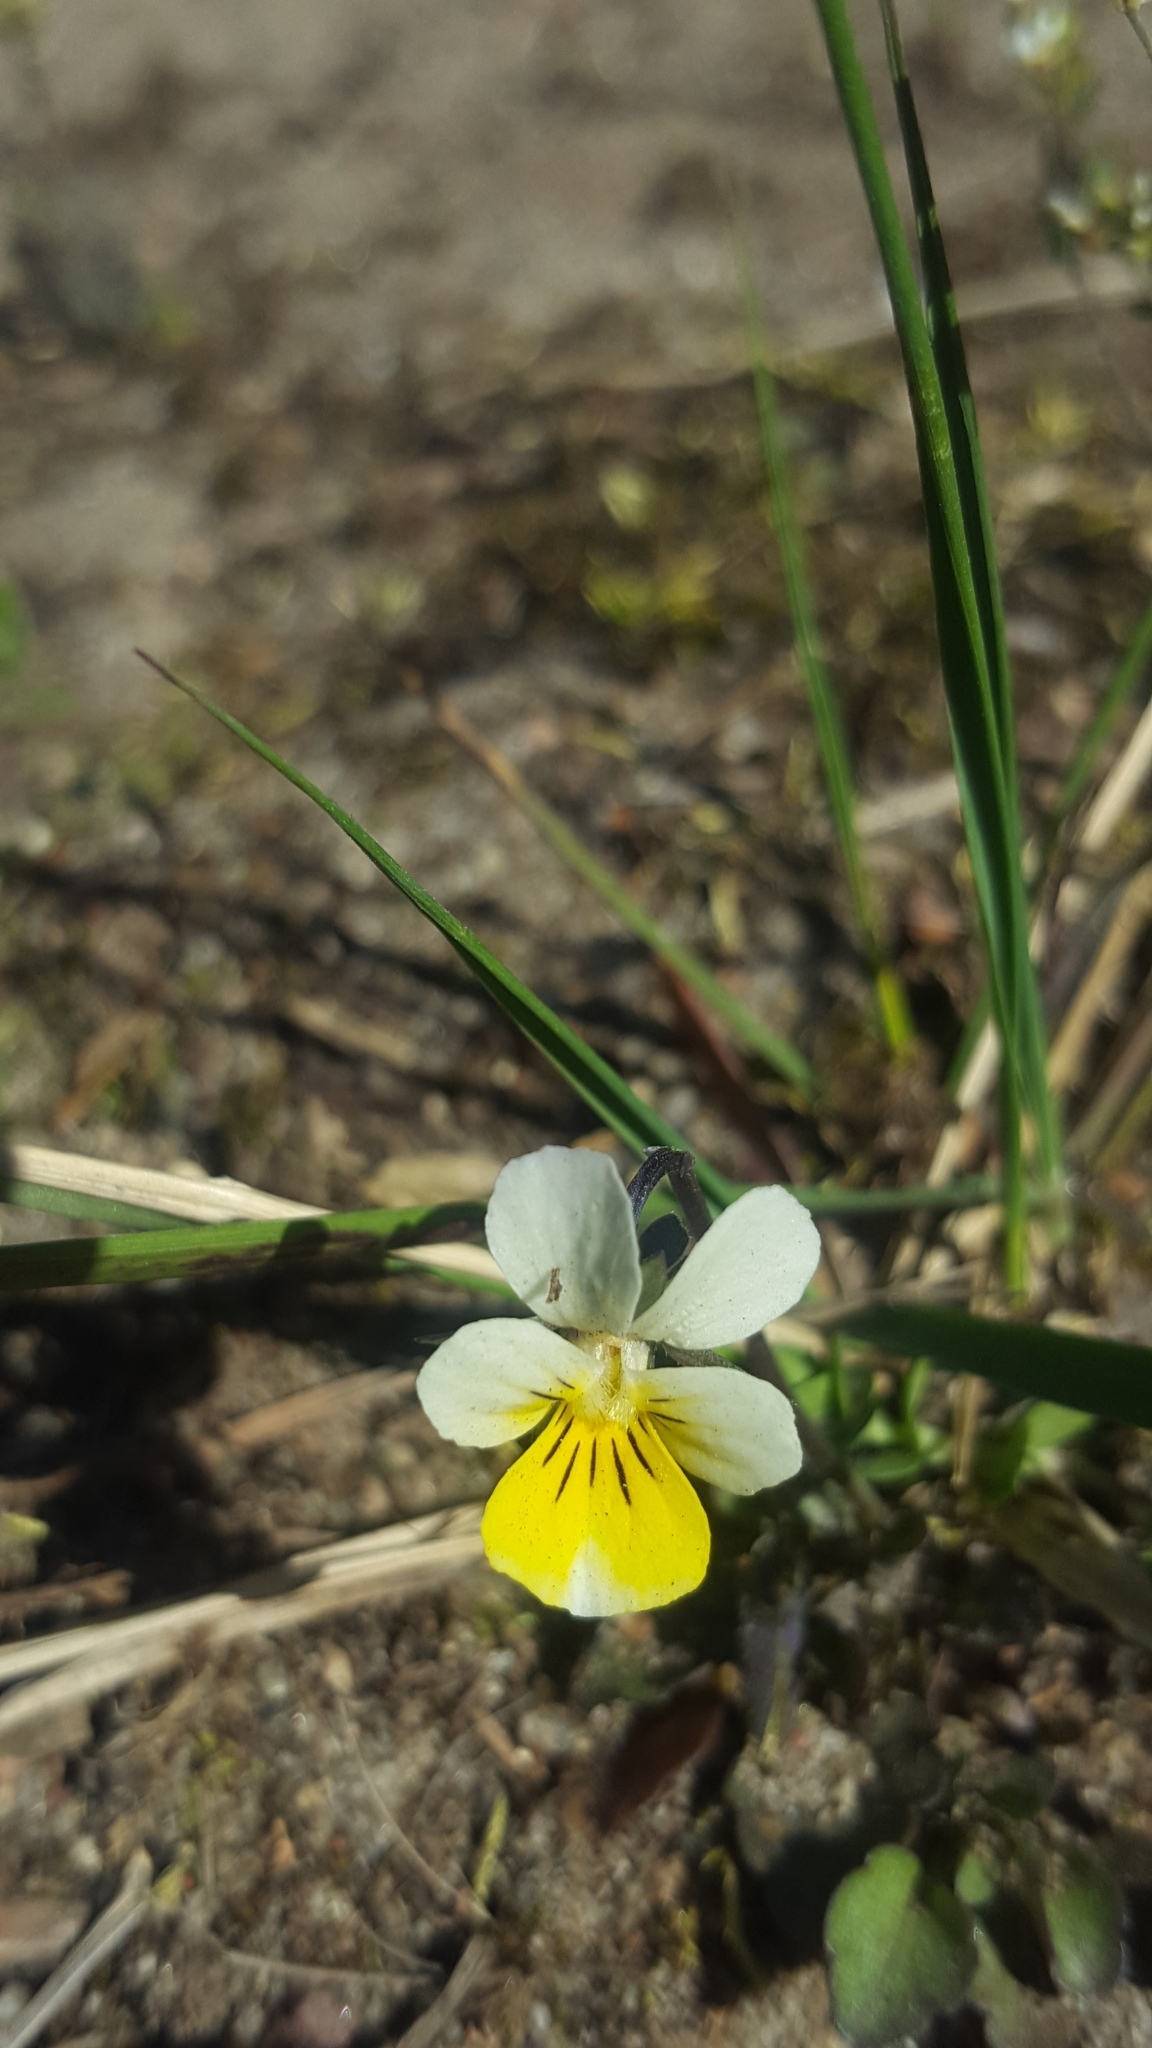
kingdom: Plantae
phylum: Tracheophyta
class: Magnoliopsida
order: Malpighiales
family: Violaceae
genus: Viola
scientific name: Viola tricolor
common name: Pansy
